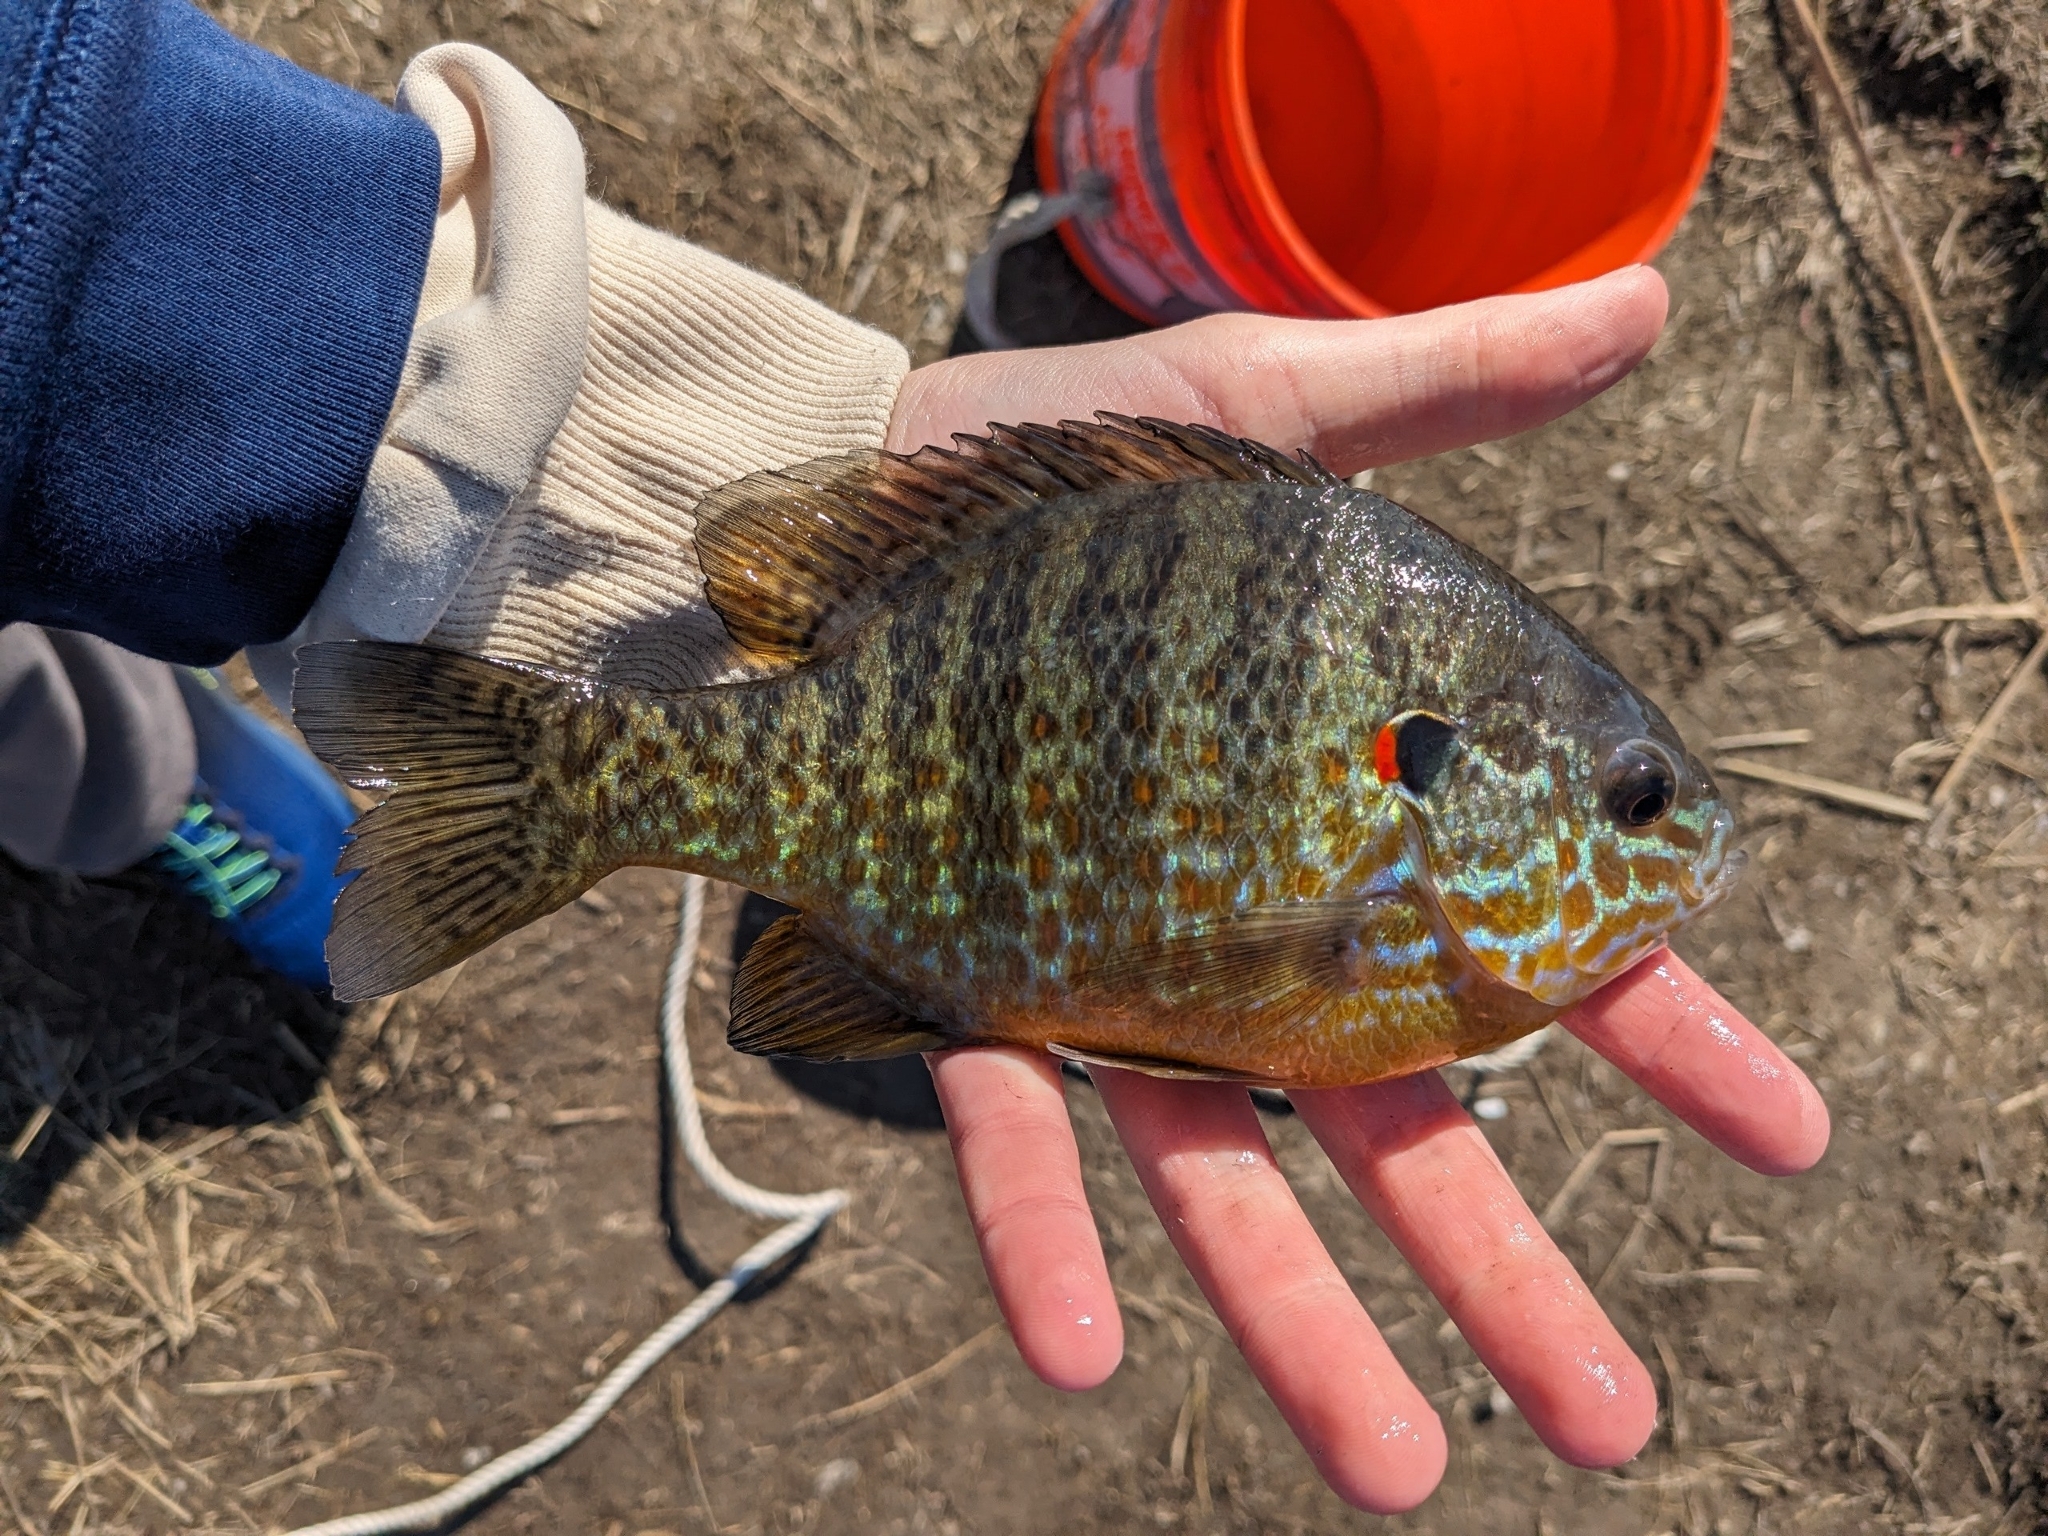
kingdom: Animalia
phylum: Chordata
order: Perciformes
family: Centrarchidae
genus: Lepomis
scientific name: Lepomis gibbosus
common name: Pumpkinseed
